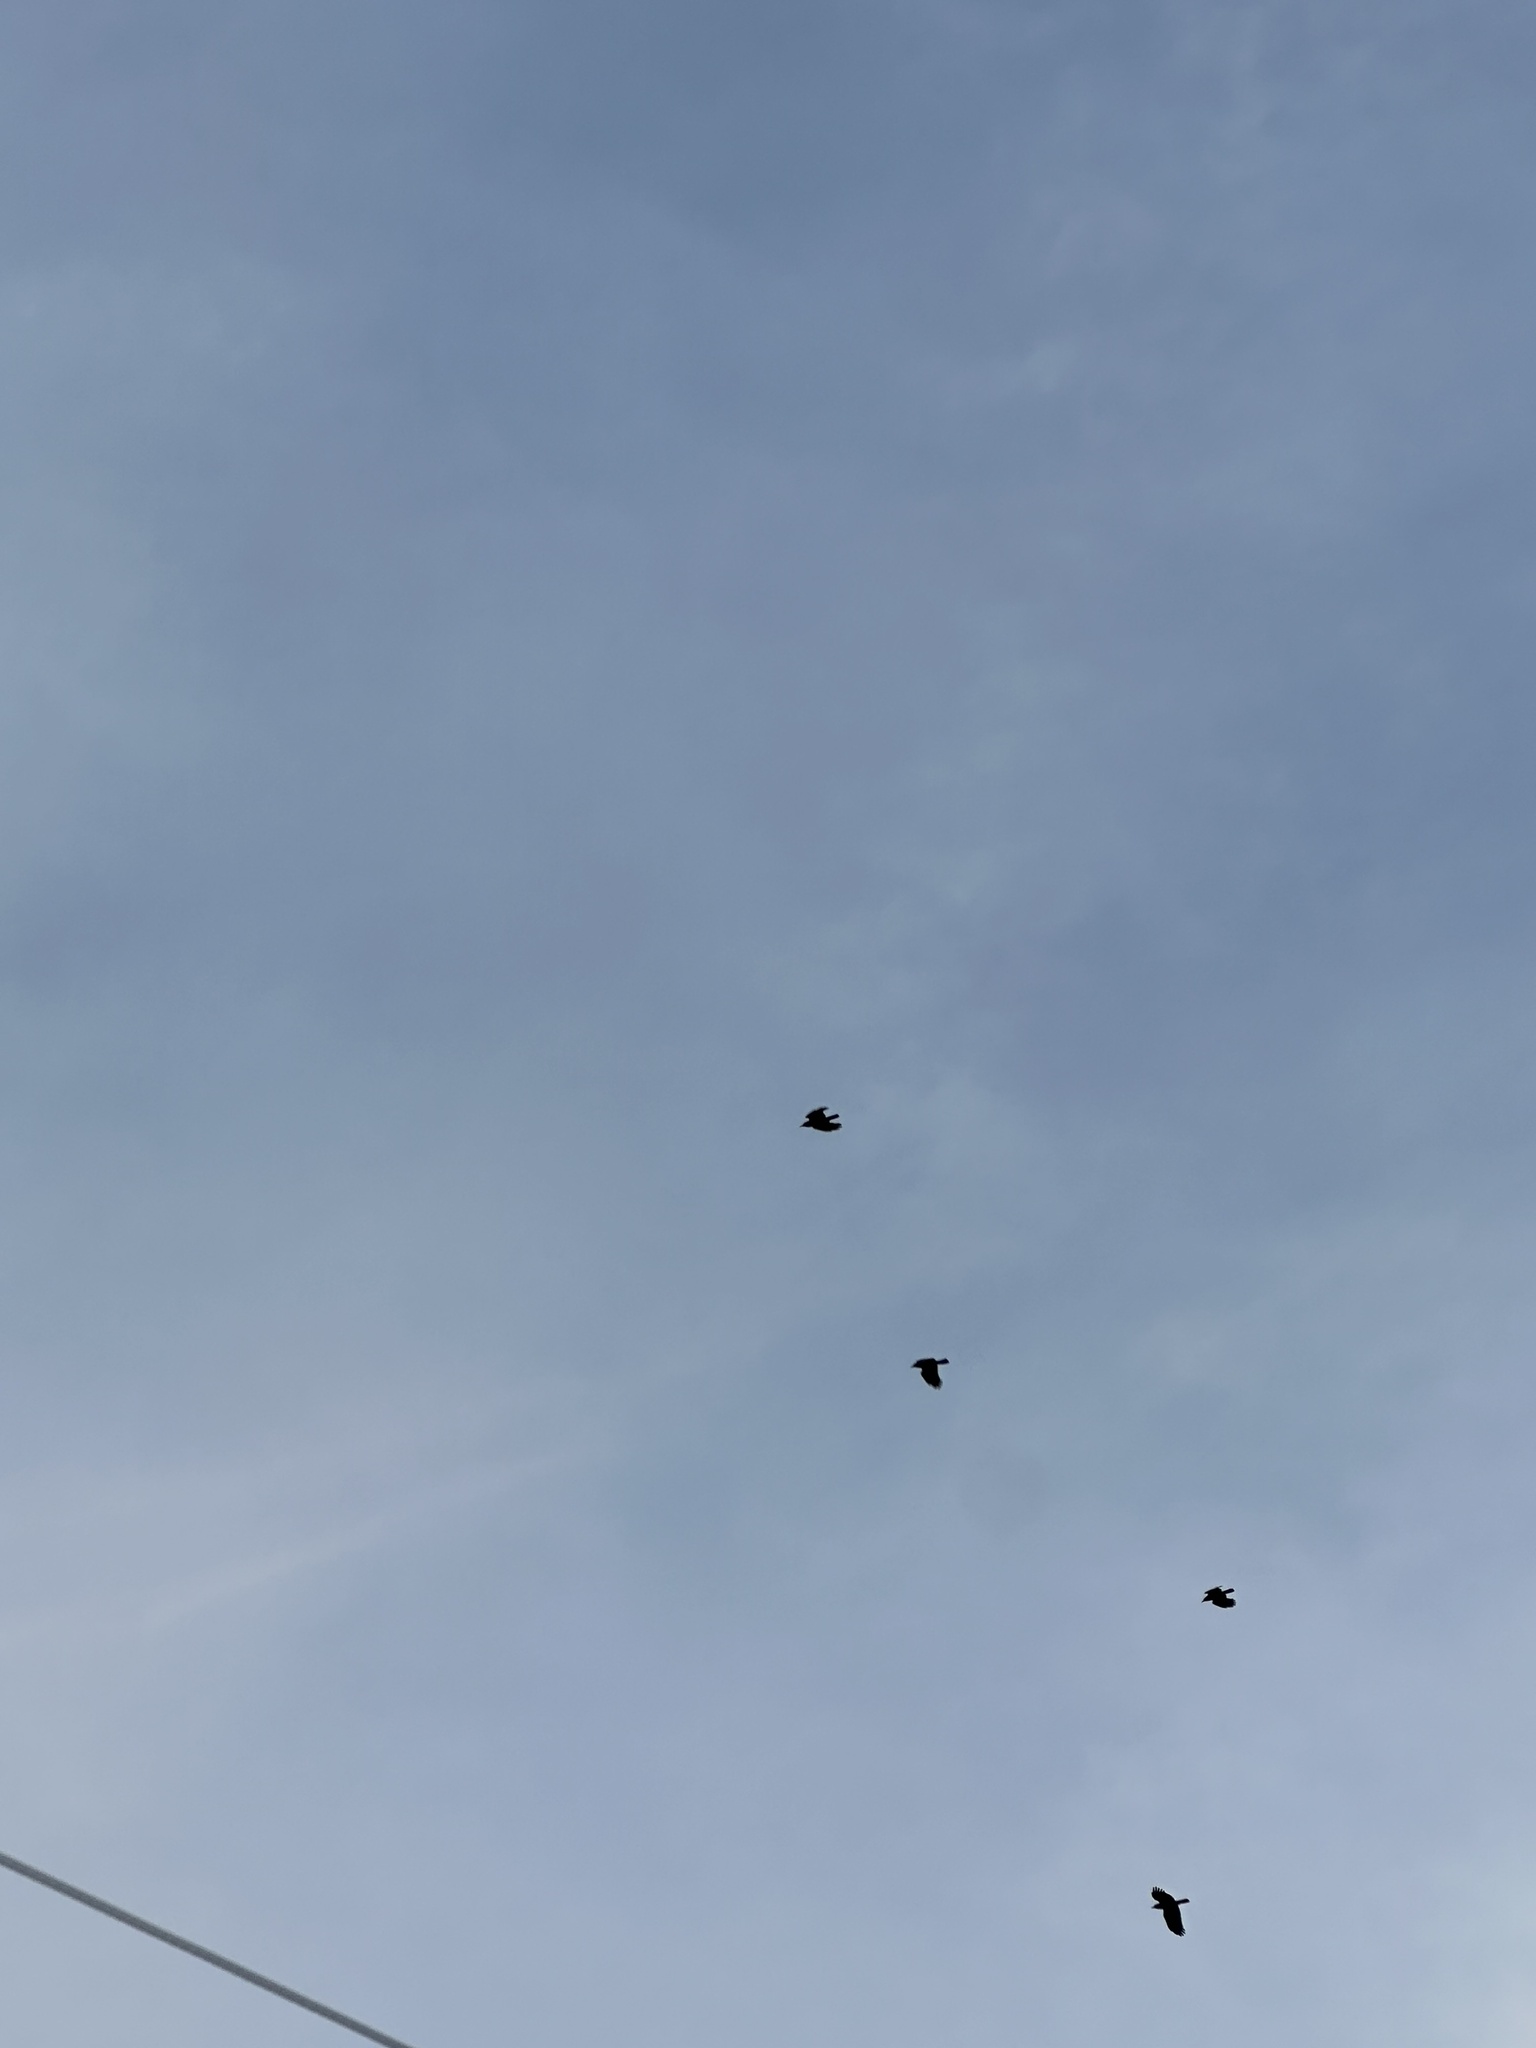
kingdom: Animalia
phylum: Chordata
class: Aves
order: Passeriformes
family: Corvidae
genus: Corvus
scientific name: Corvus brachyrhynchos
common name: American crow
